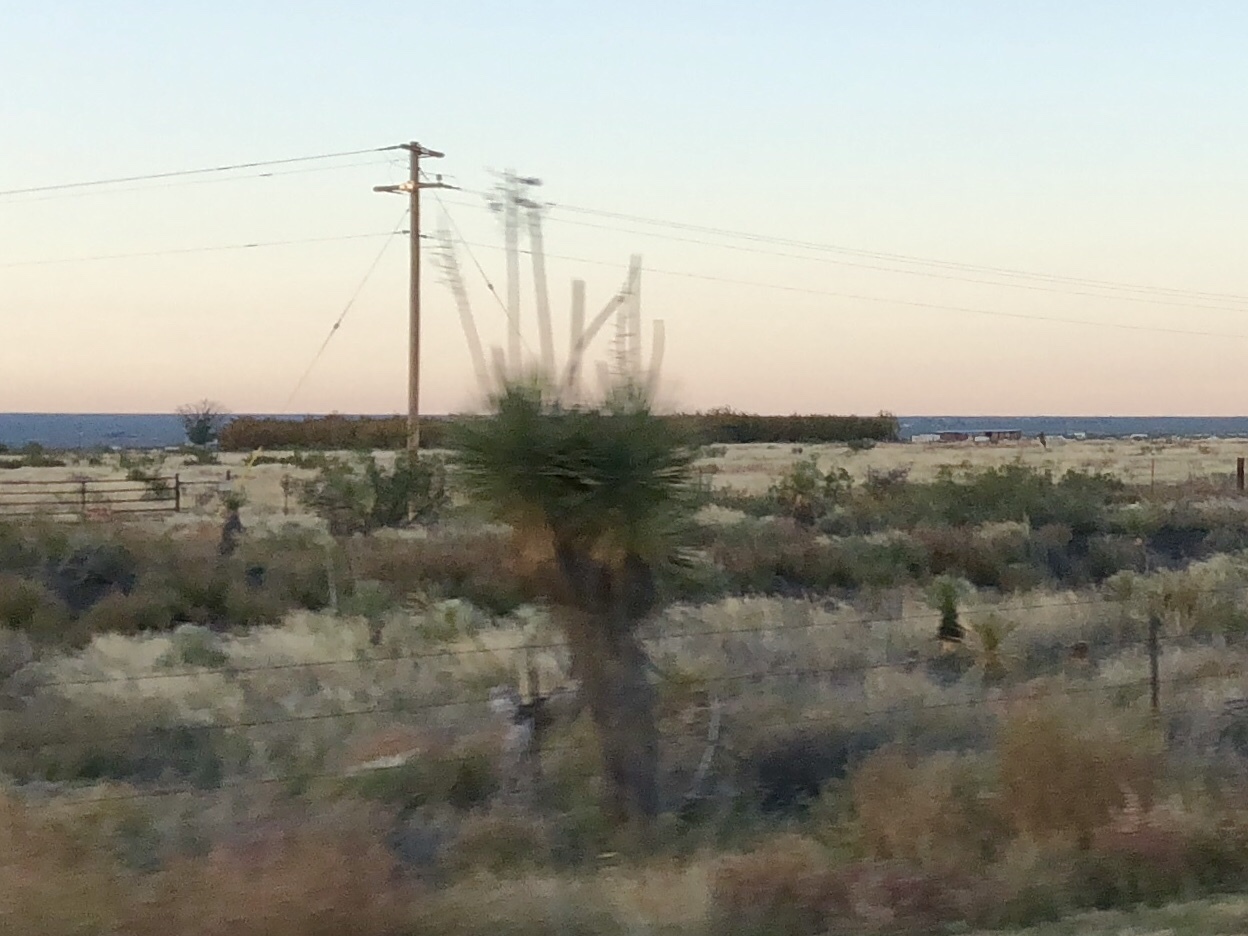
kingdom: Plantae
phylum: Tracheophyta
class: Liliopsida
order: Asparagales
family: Asparagaceae
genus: Yucca
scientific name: Yucca elata
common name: Palmella
